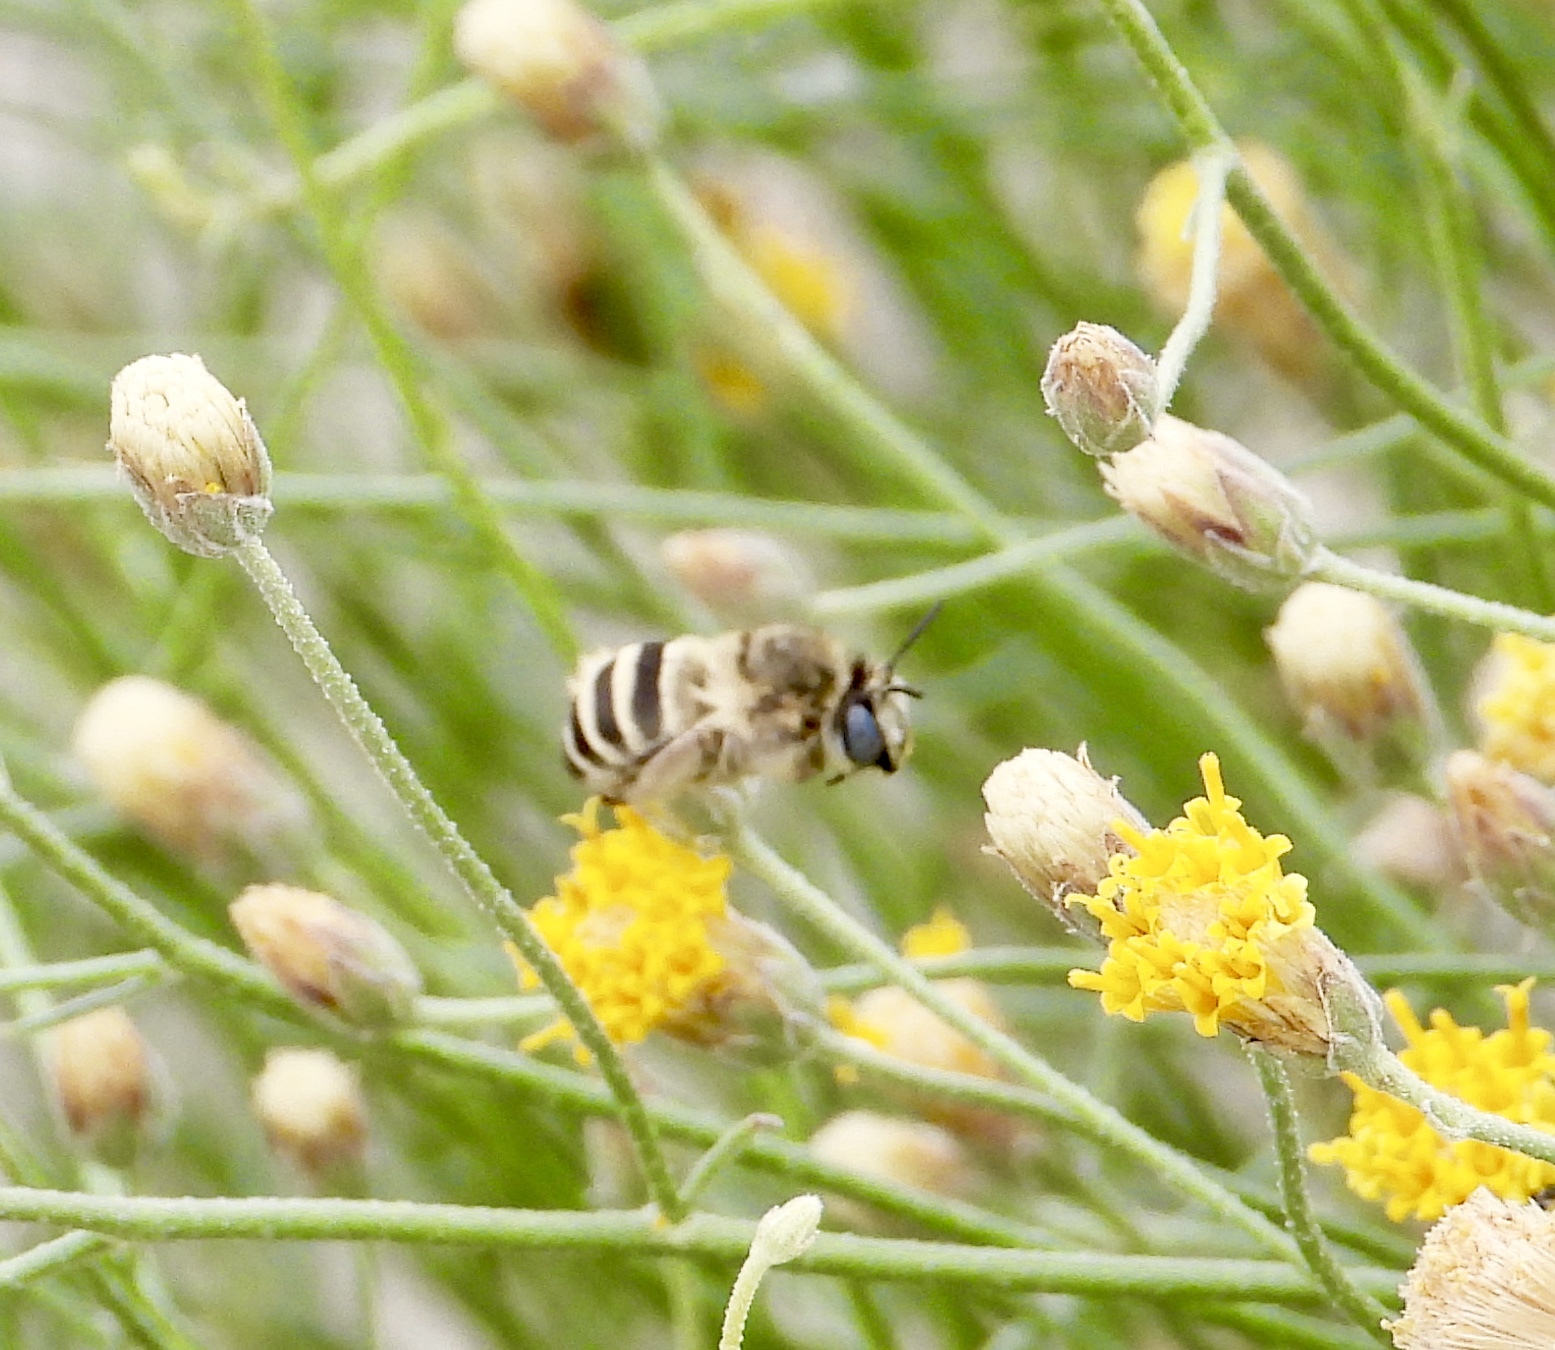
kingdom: Animalia
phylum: Arthropoda
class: Insecta
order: Hymenoptera
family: Apidae
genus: Anthophora
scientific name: Anthophora urbana
